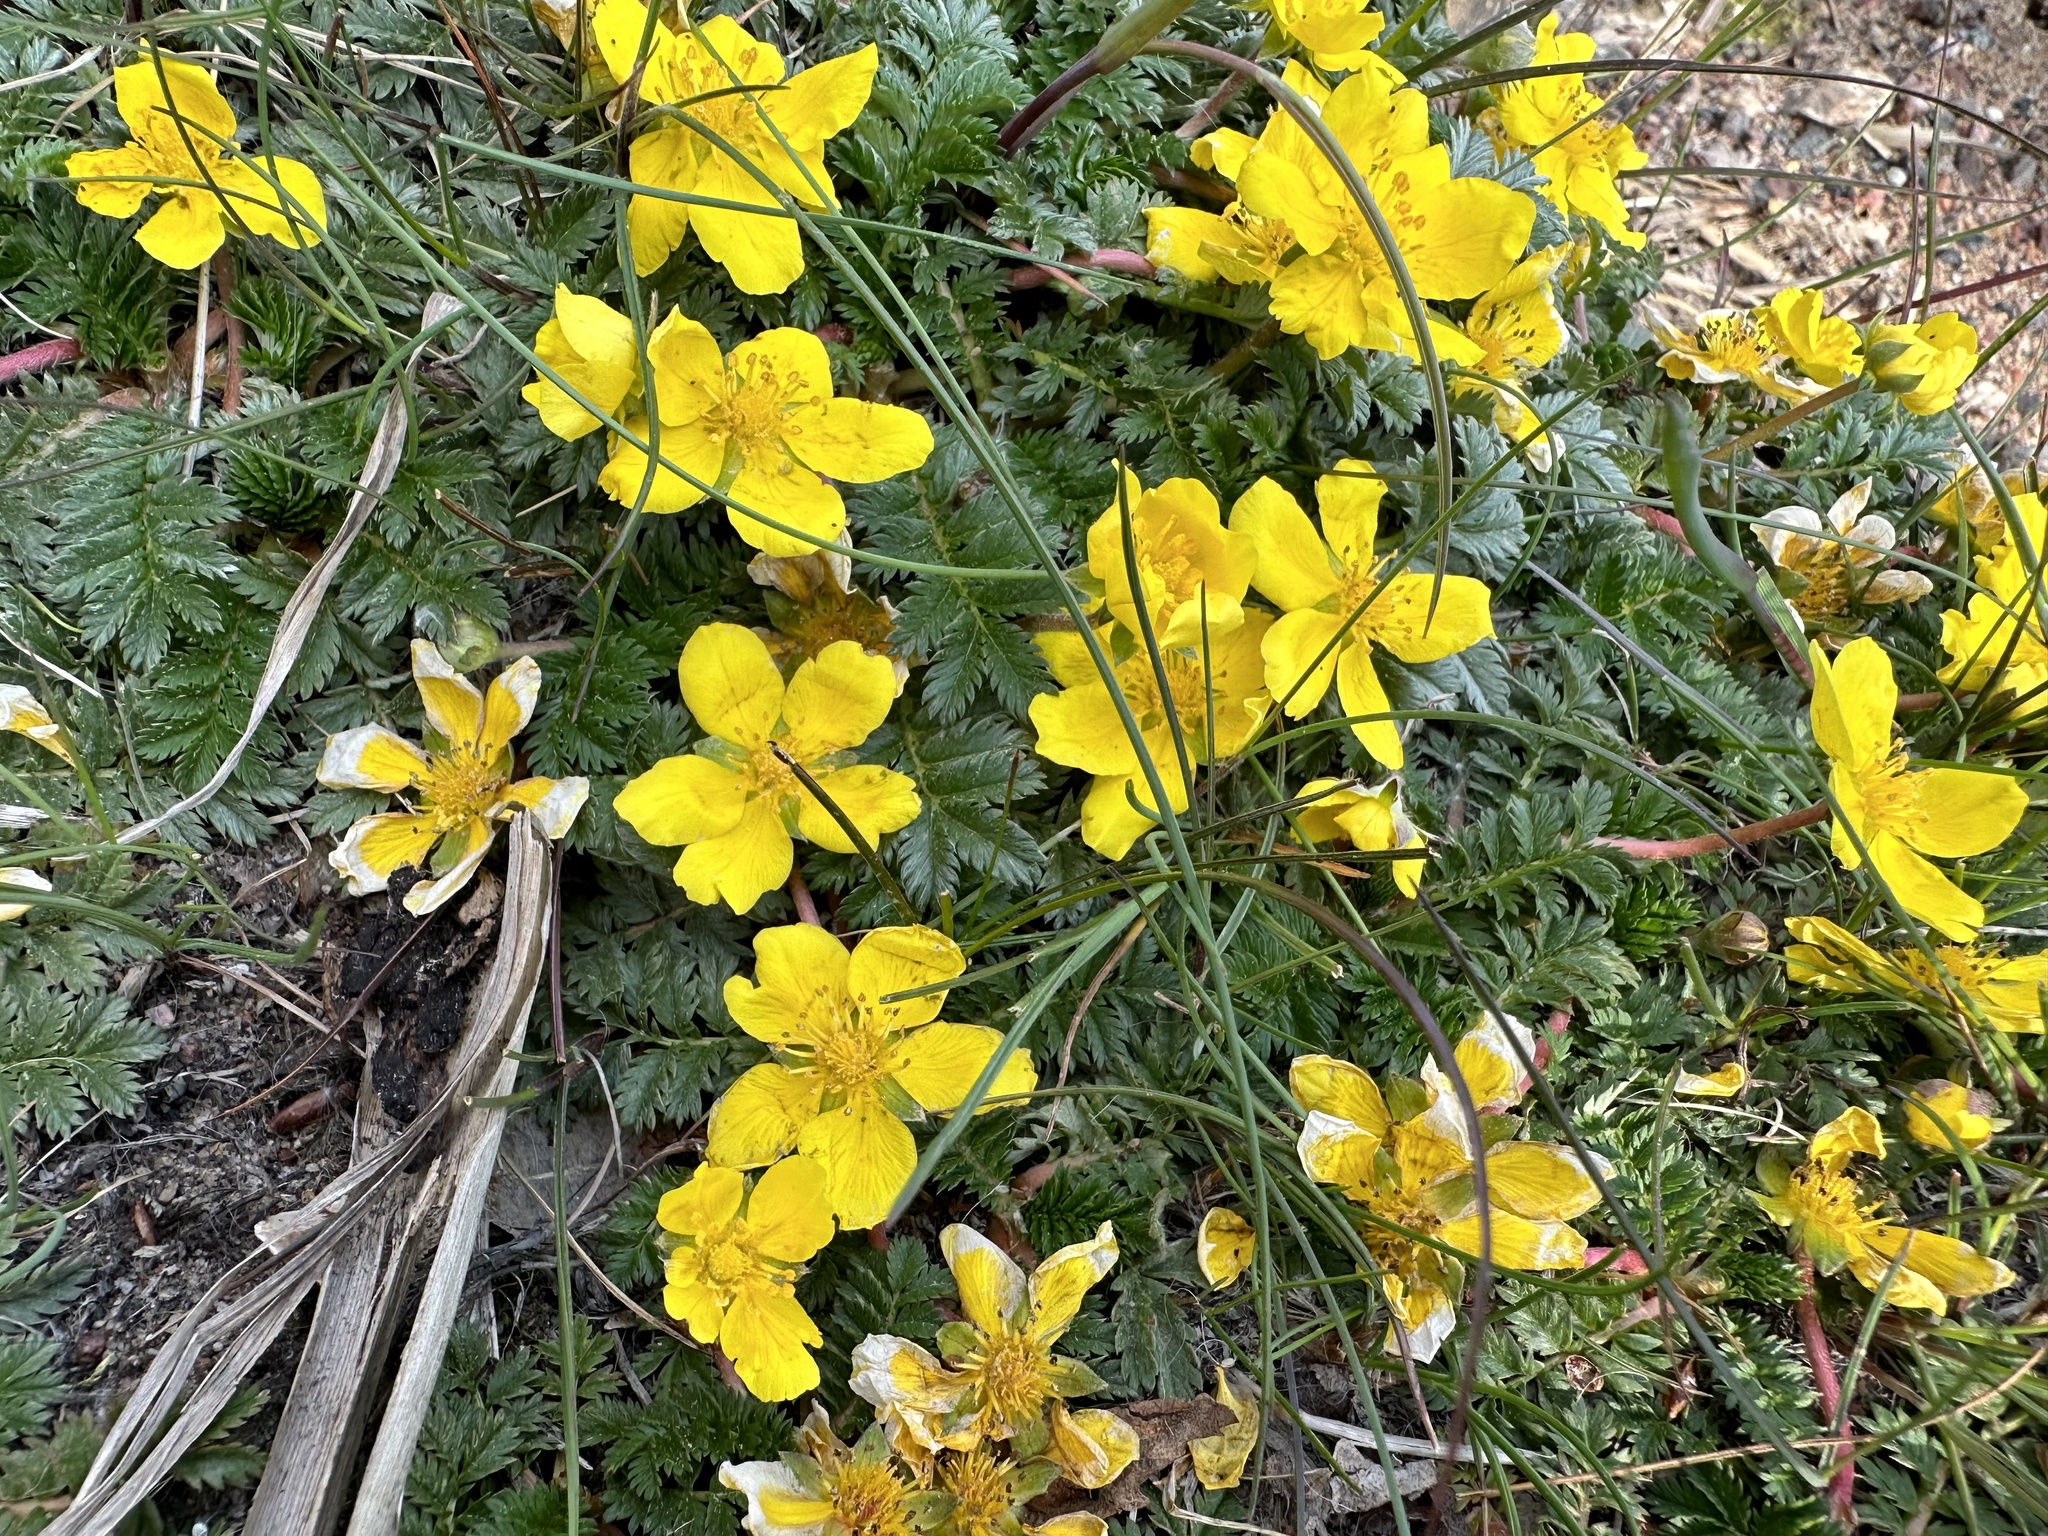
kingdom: Plantae
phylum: Tracheophyta
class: Magnoliopsida
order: Rosales
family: Rosaceae
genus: Argentina
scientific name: Argentina anserina
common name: Common silverweed
